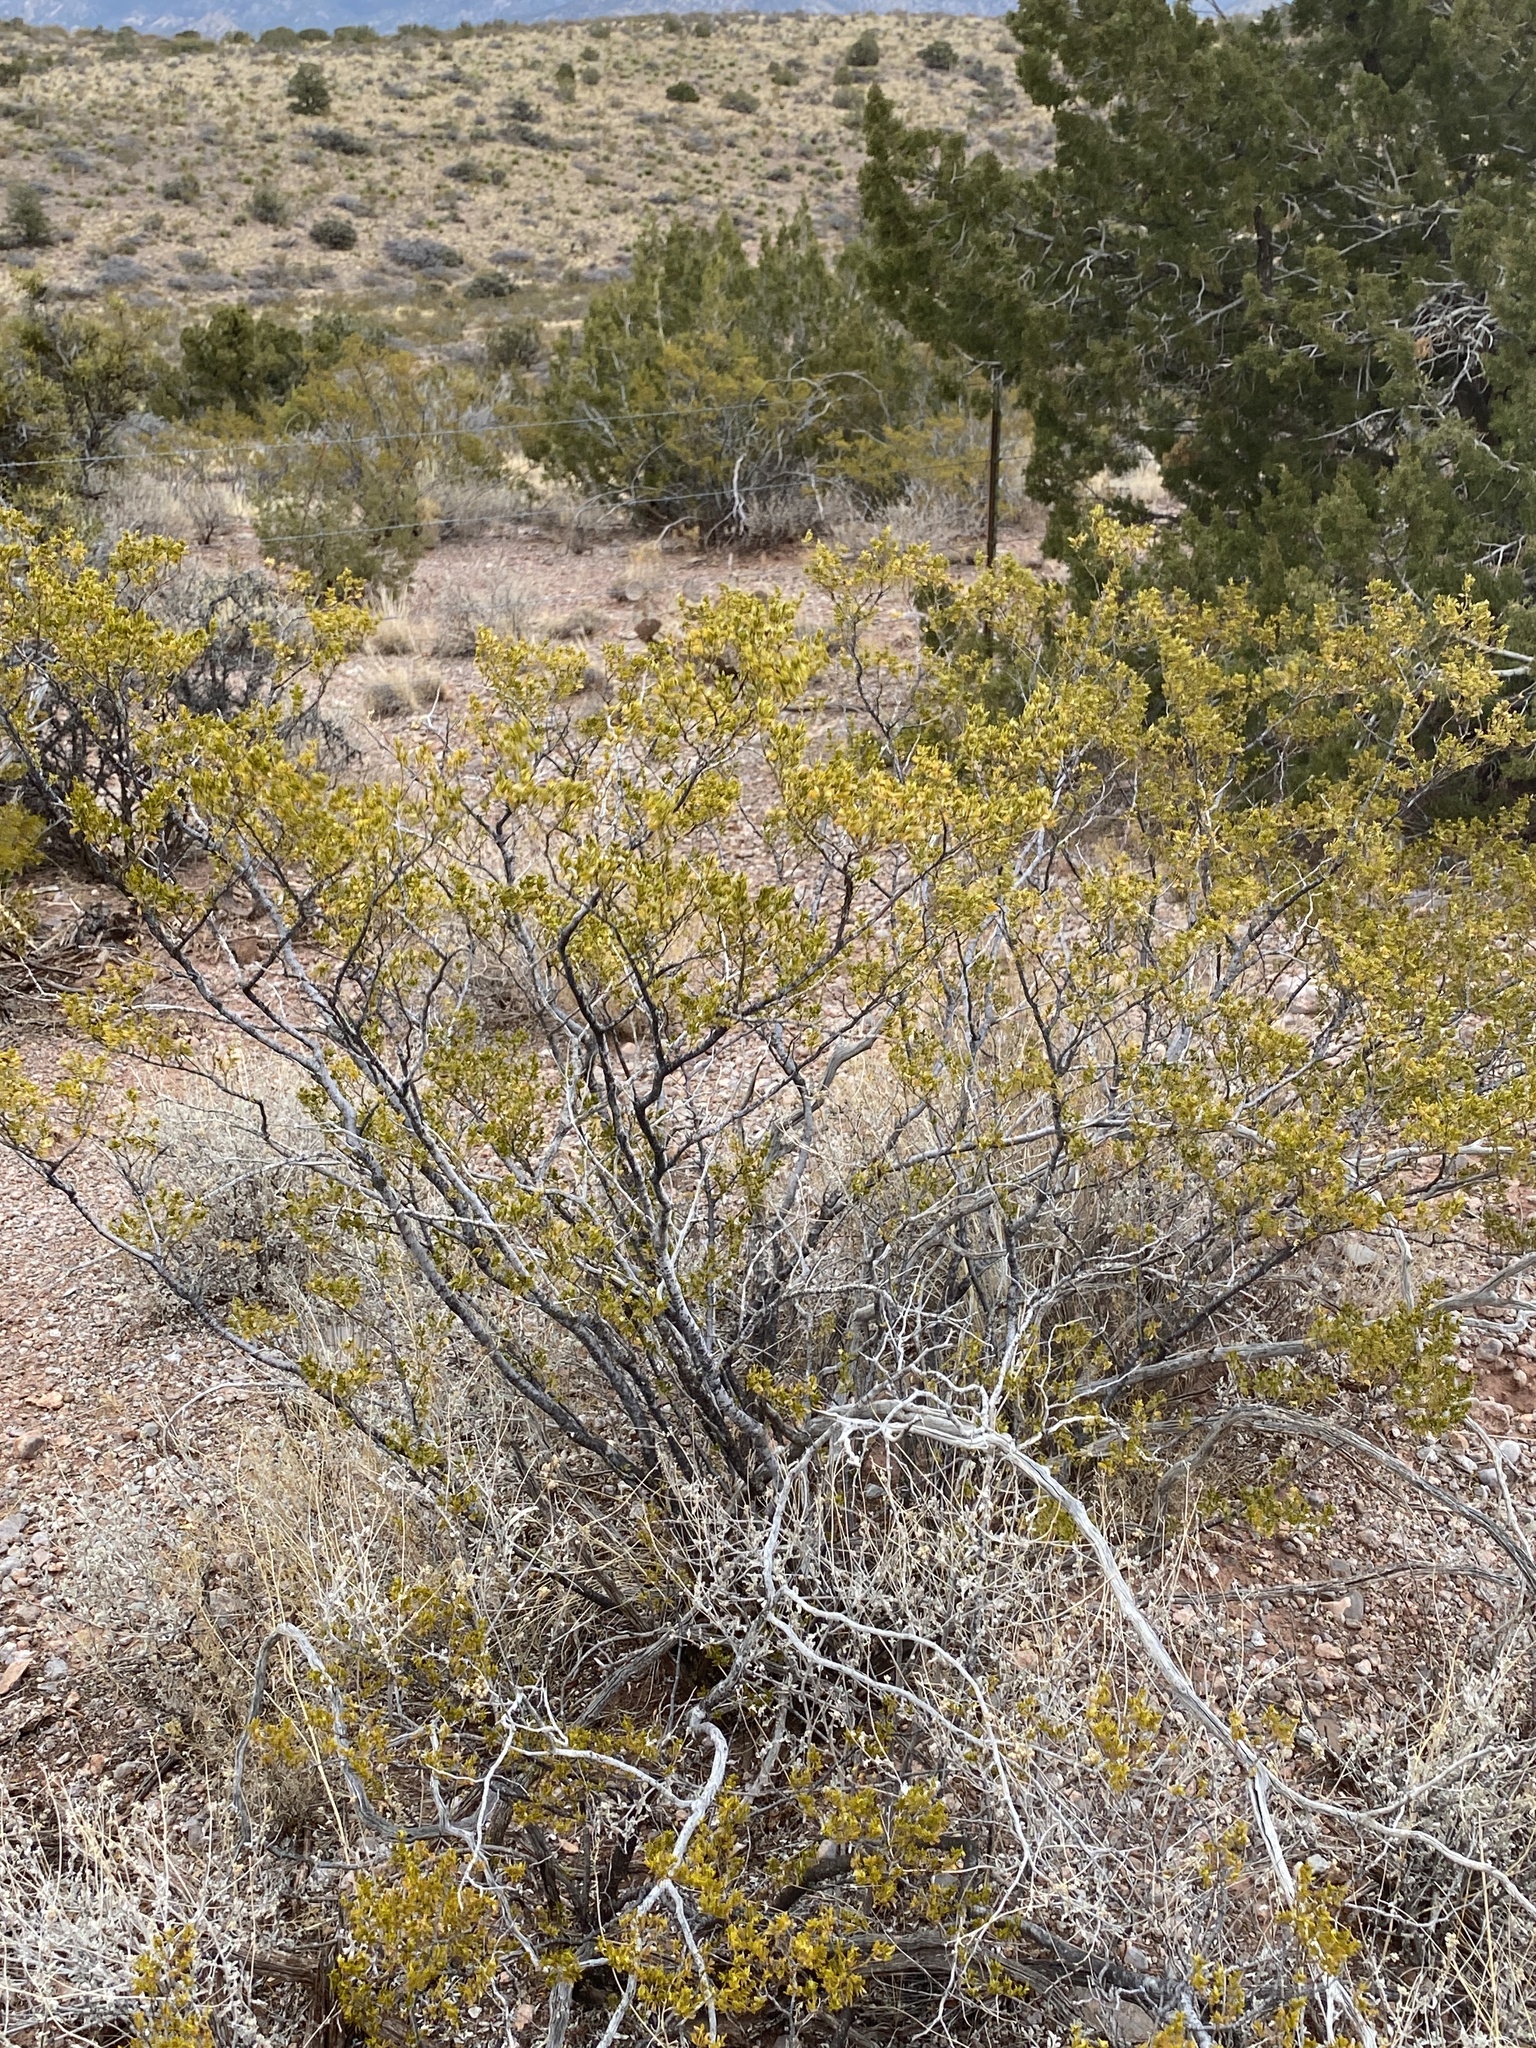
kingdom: Plantae
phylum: Tracheophyta
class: Magnoliopsida
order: Zygophyllales
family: Zygophyllaceae
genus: Larrea
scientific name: Larrea tridentata
